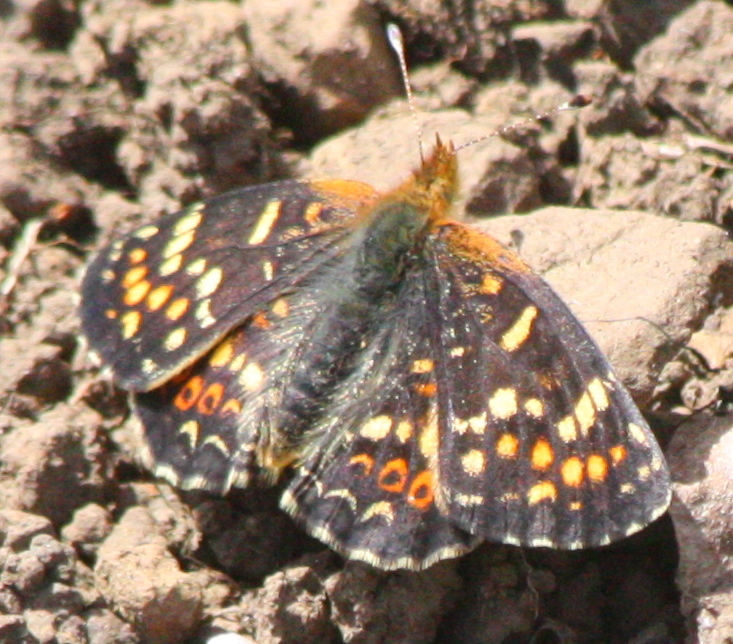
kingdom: Animalia
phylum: Arthropoda
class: Insecta
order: Lepidoptera
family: Nymphalidae
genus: Phyciodes
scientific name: Phyciodes tharos
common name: Pearl crescent
